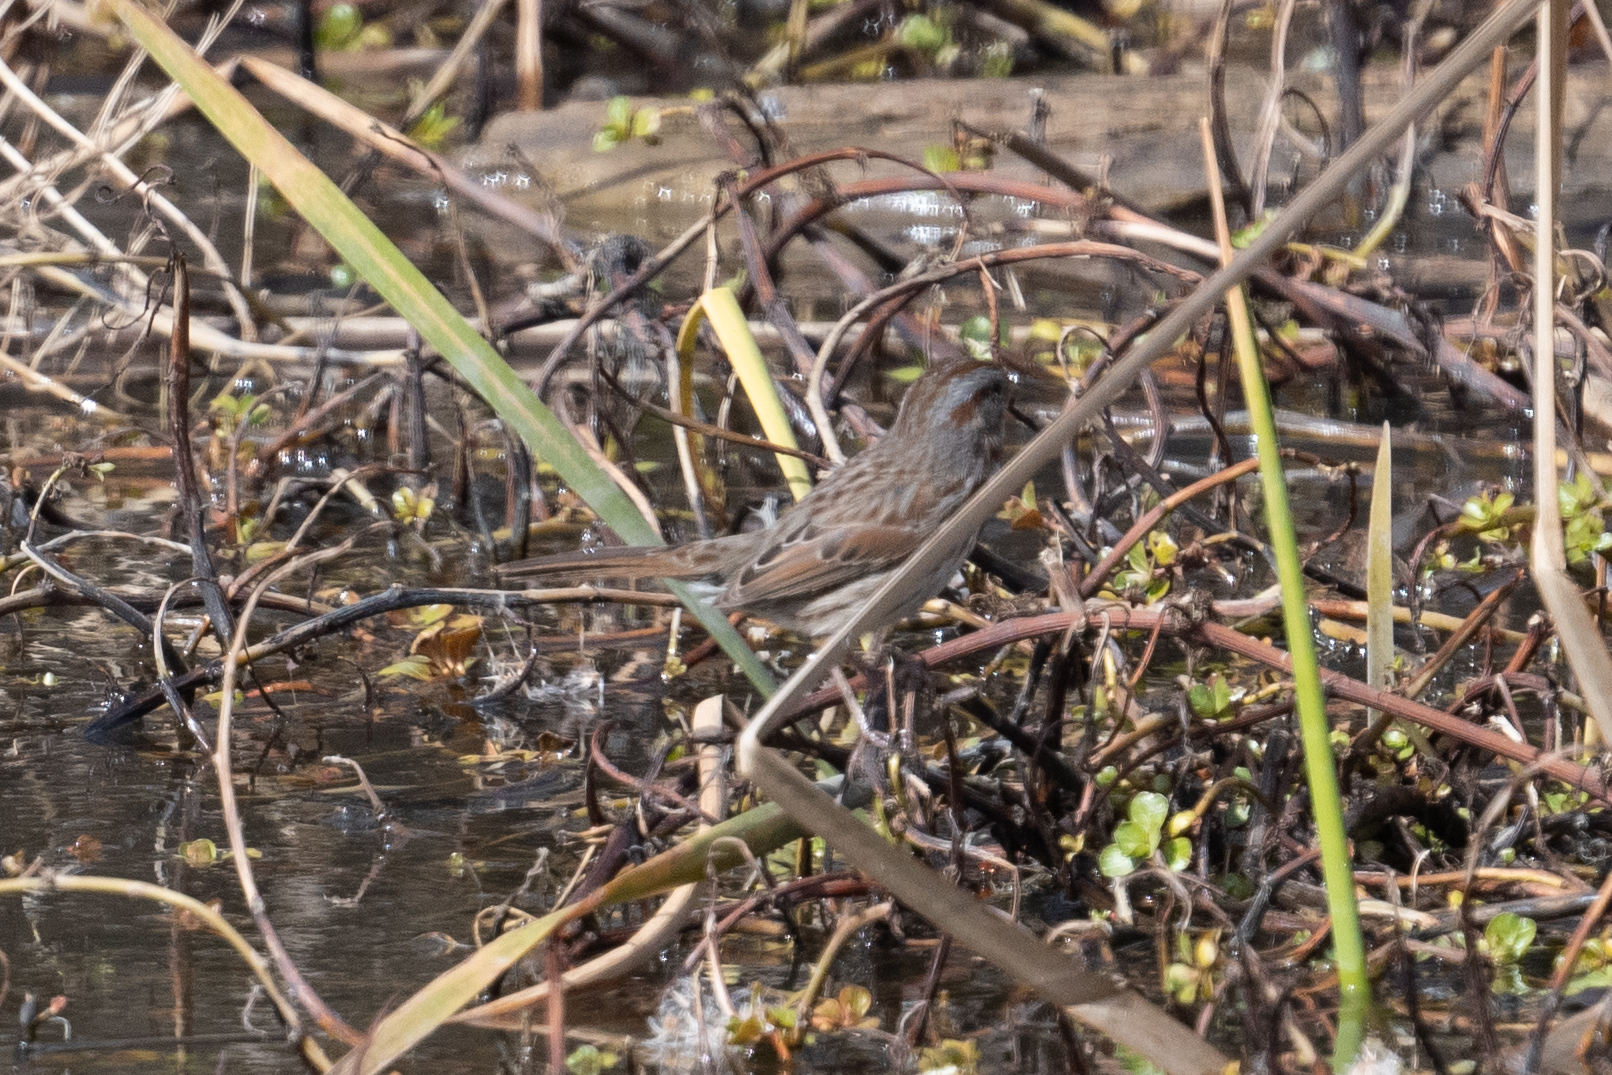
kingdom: Animalia
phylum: Chordata
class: Aves
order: Passeriformes
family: Passerellidae
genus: Melospiza
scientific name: Melospiza melodia
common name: Song sparrow
